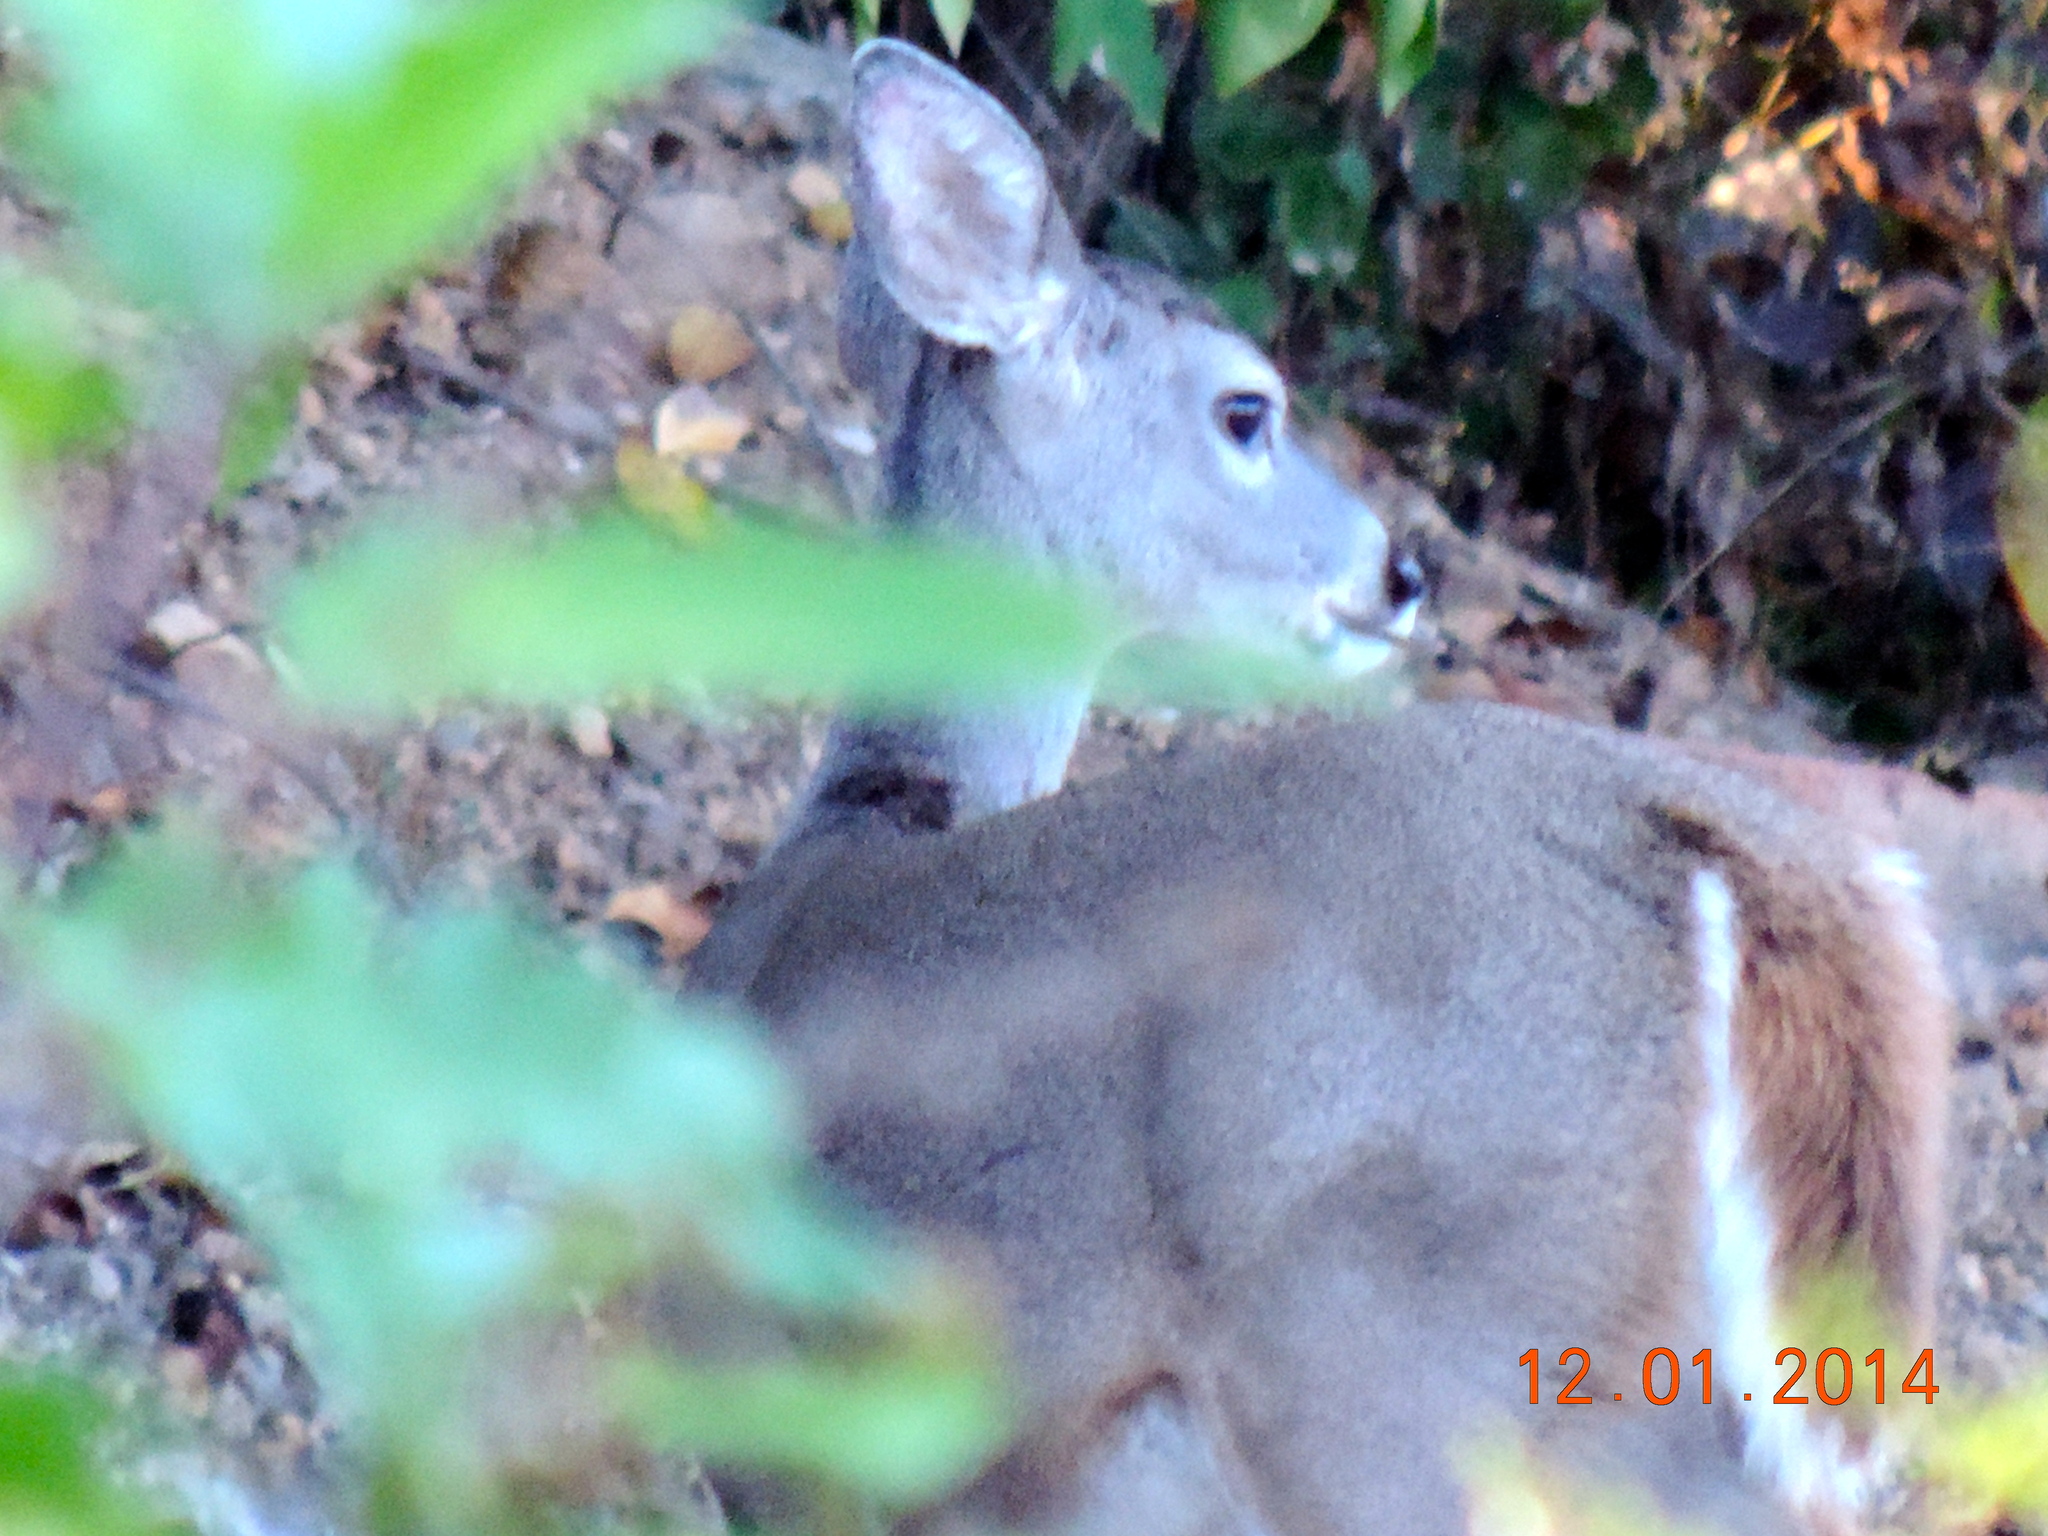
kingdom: Animalia
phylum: Chordata
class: Mammalia
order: Artiodactyla
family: Cervidae
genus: Odocoileus
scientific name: Odocoileus virginianus
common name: White-tailed deer
